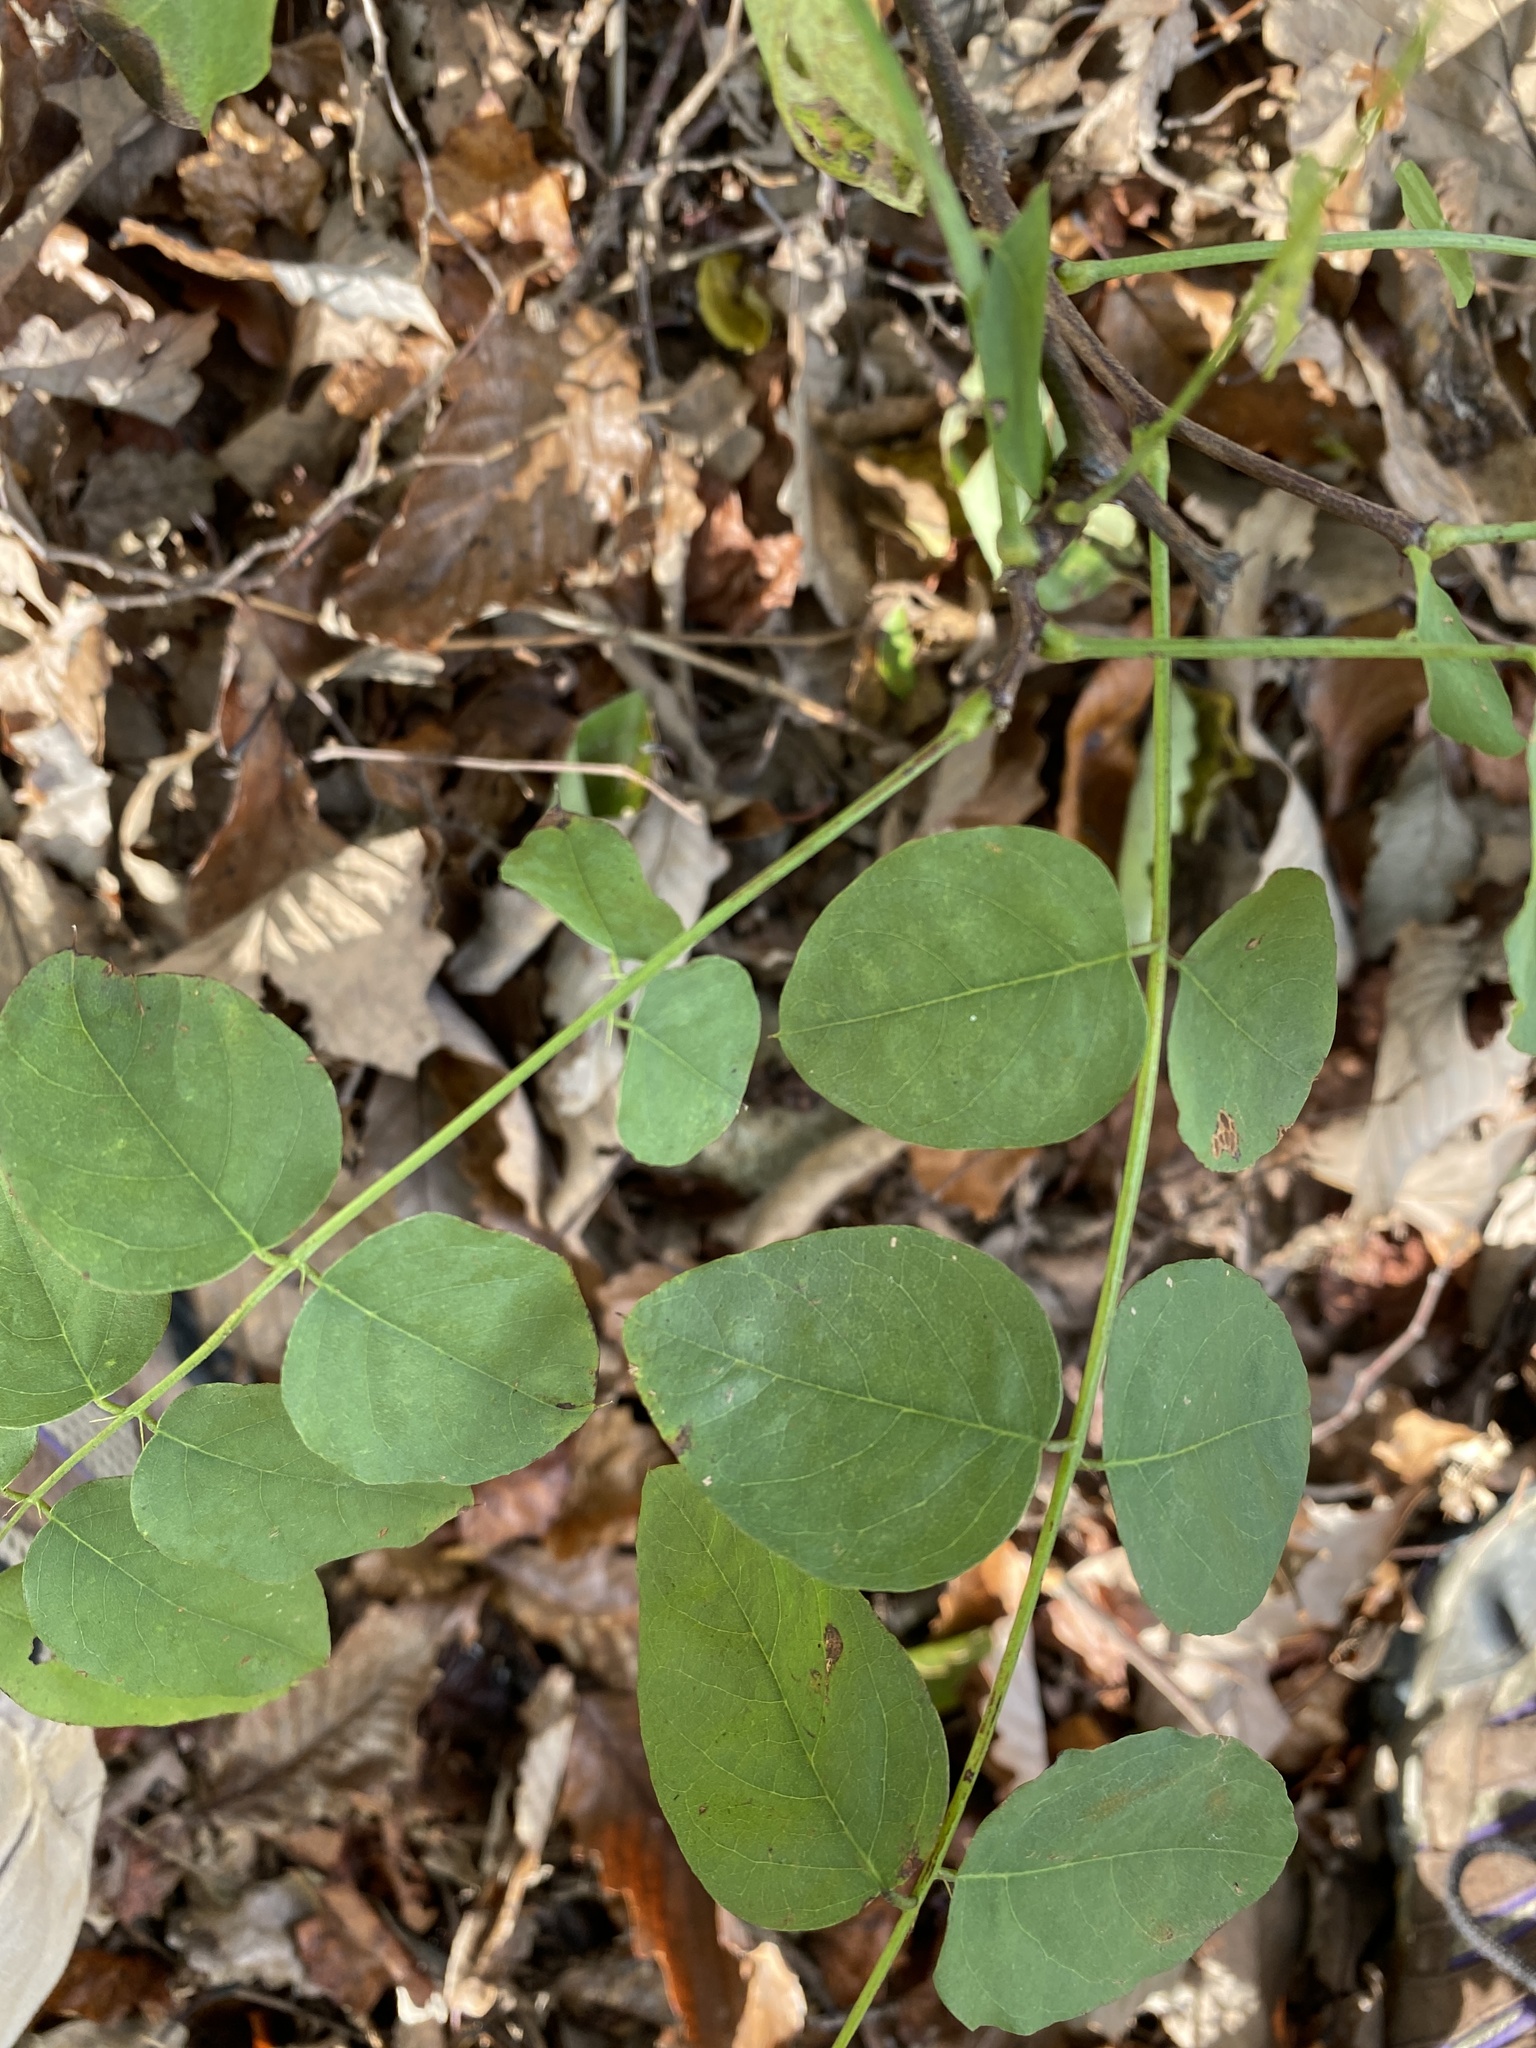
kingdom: Plantae
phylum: Tracheophyta
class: Magnoliopsida
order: Fabales
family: Fabaceae
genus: Robinia
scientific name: Robinia pseudoacacia
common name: Black locust
